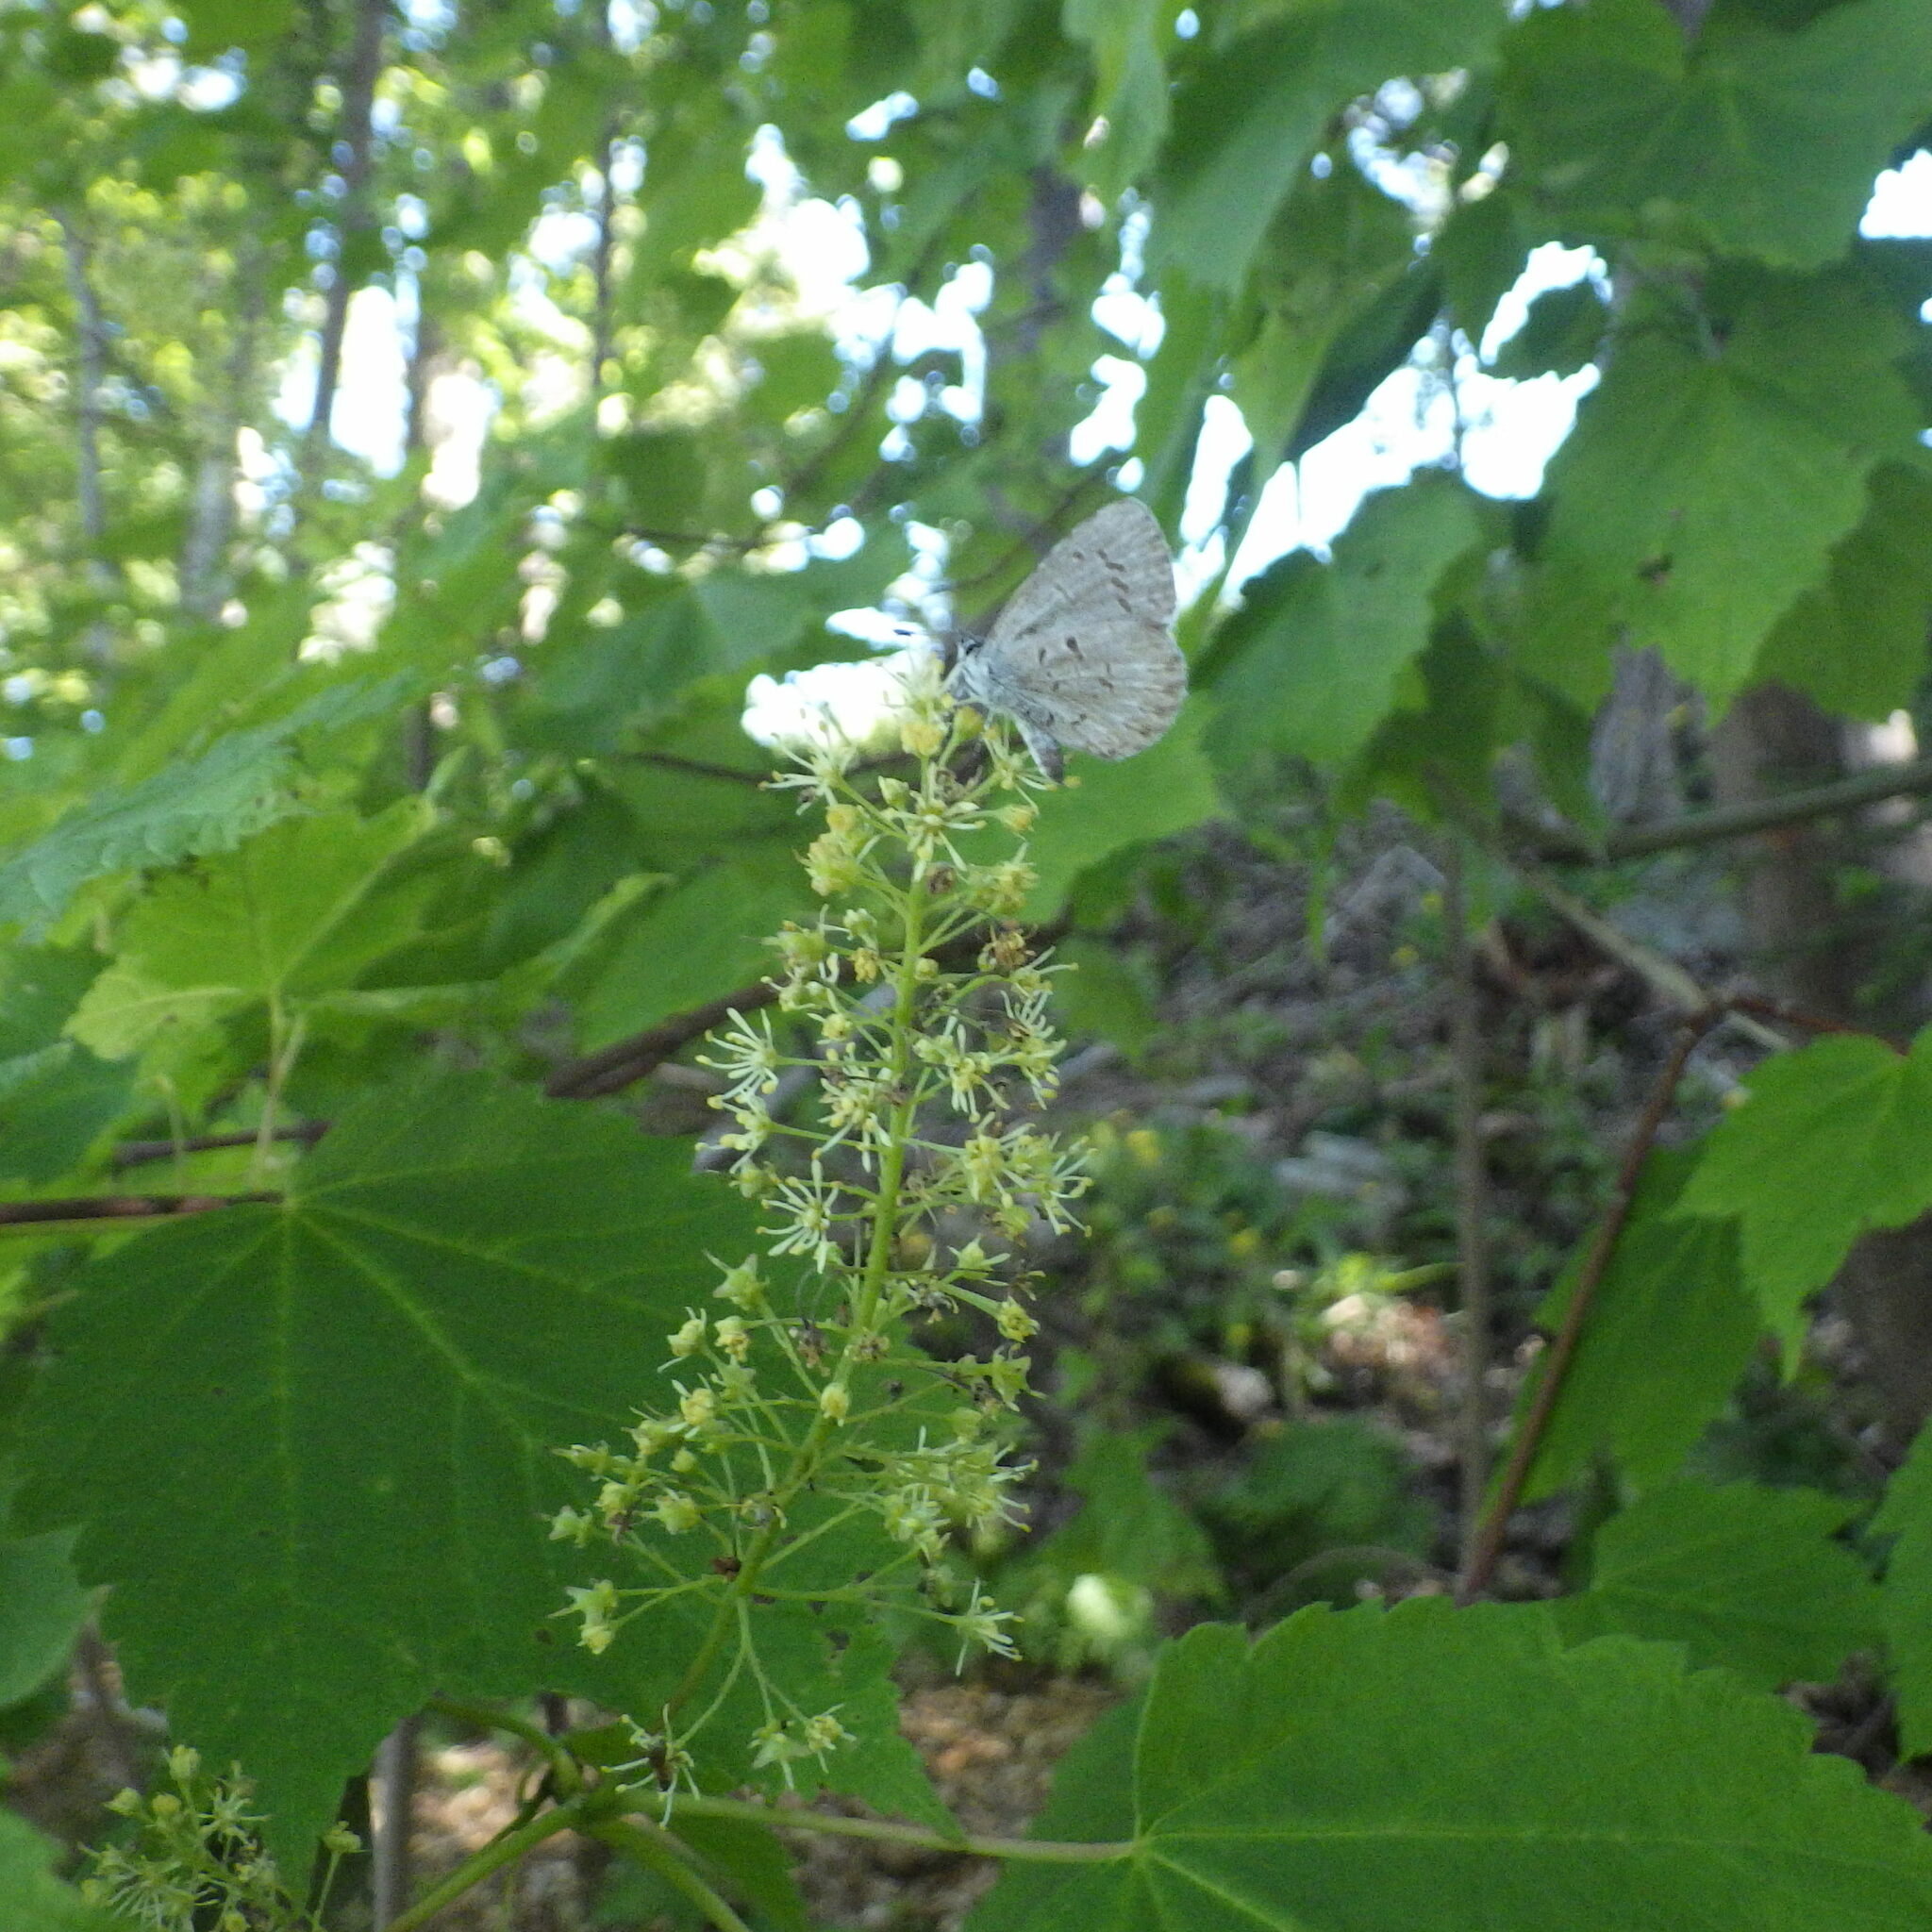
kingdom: Animalia
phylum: Arthropoda
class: Insecta
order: Lepidoptera
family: Lycaenidae
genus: Celastrina
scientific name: Celastrina lucia
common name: Lucia azure
